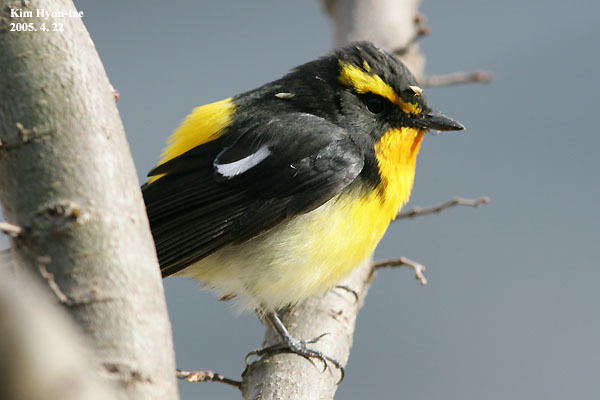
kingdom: Animalia
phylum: Chordata
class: Aves
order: Passeriformes
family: Muscicapidae
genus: Ficedula
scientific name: Ficedula narcissina
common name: Narcissus flycatcher
